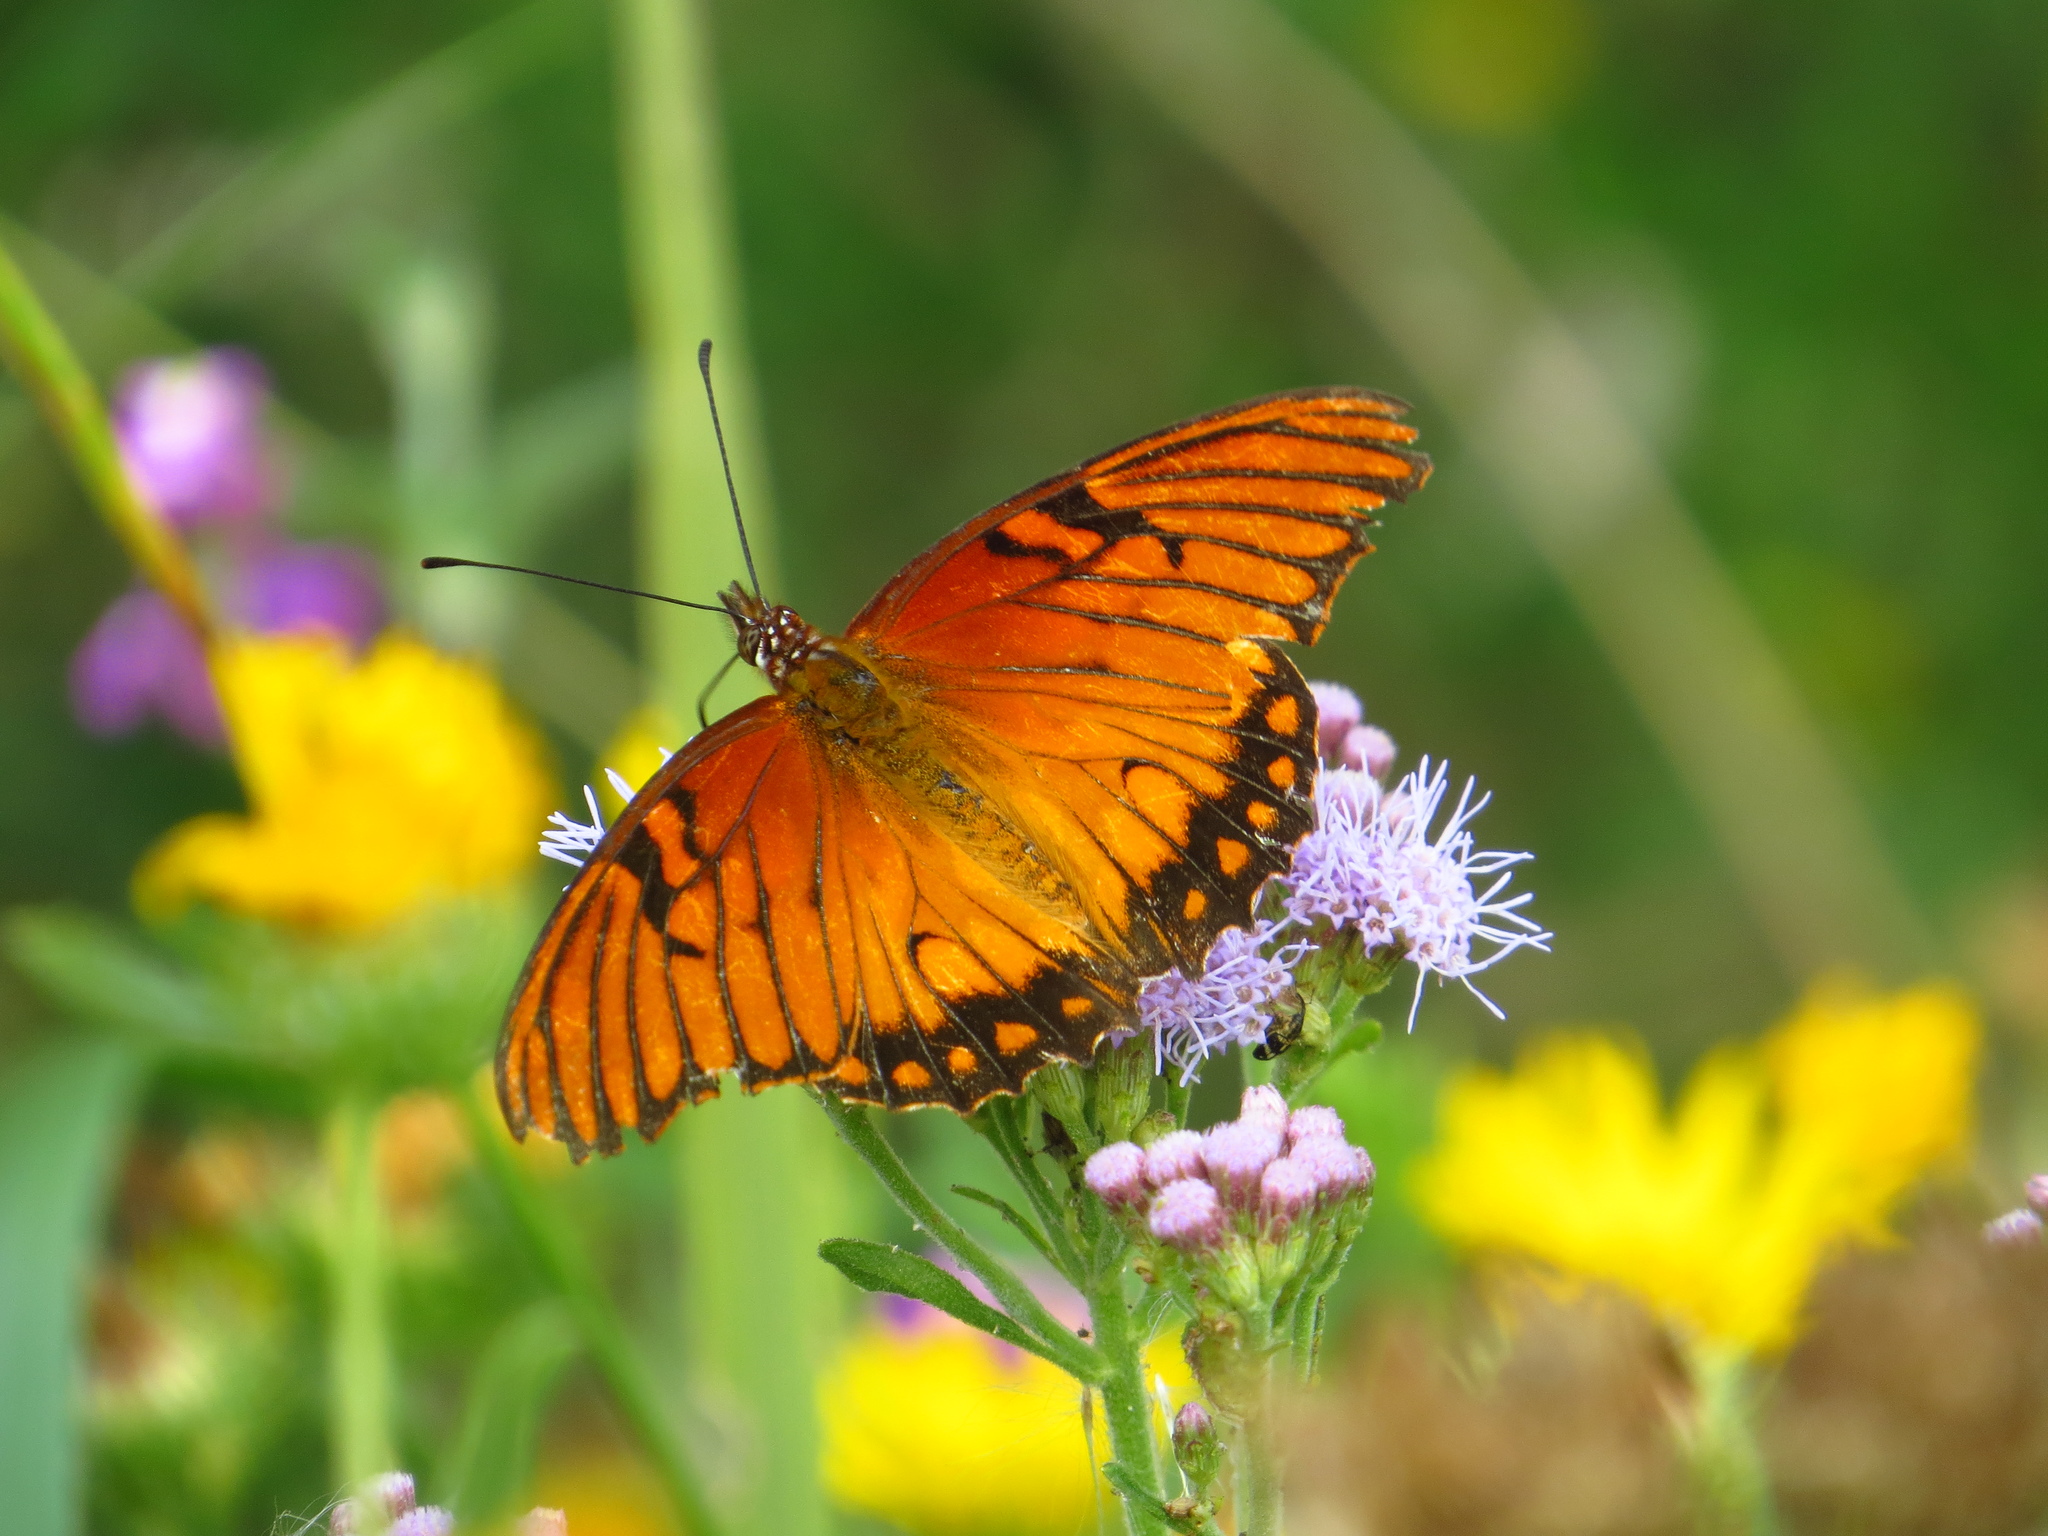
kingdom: Animalia
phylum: Arthropoda
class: Insecta
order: Lepidoptera
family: Nymphalidae
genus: Dione
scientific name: Dione moneta
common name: Mexican silverspot
